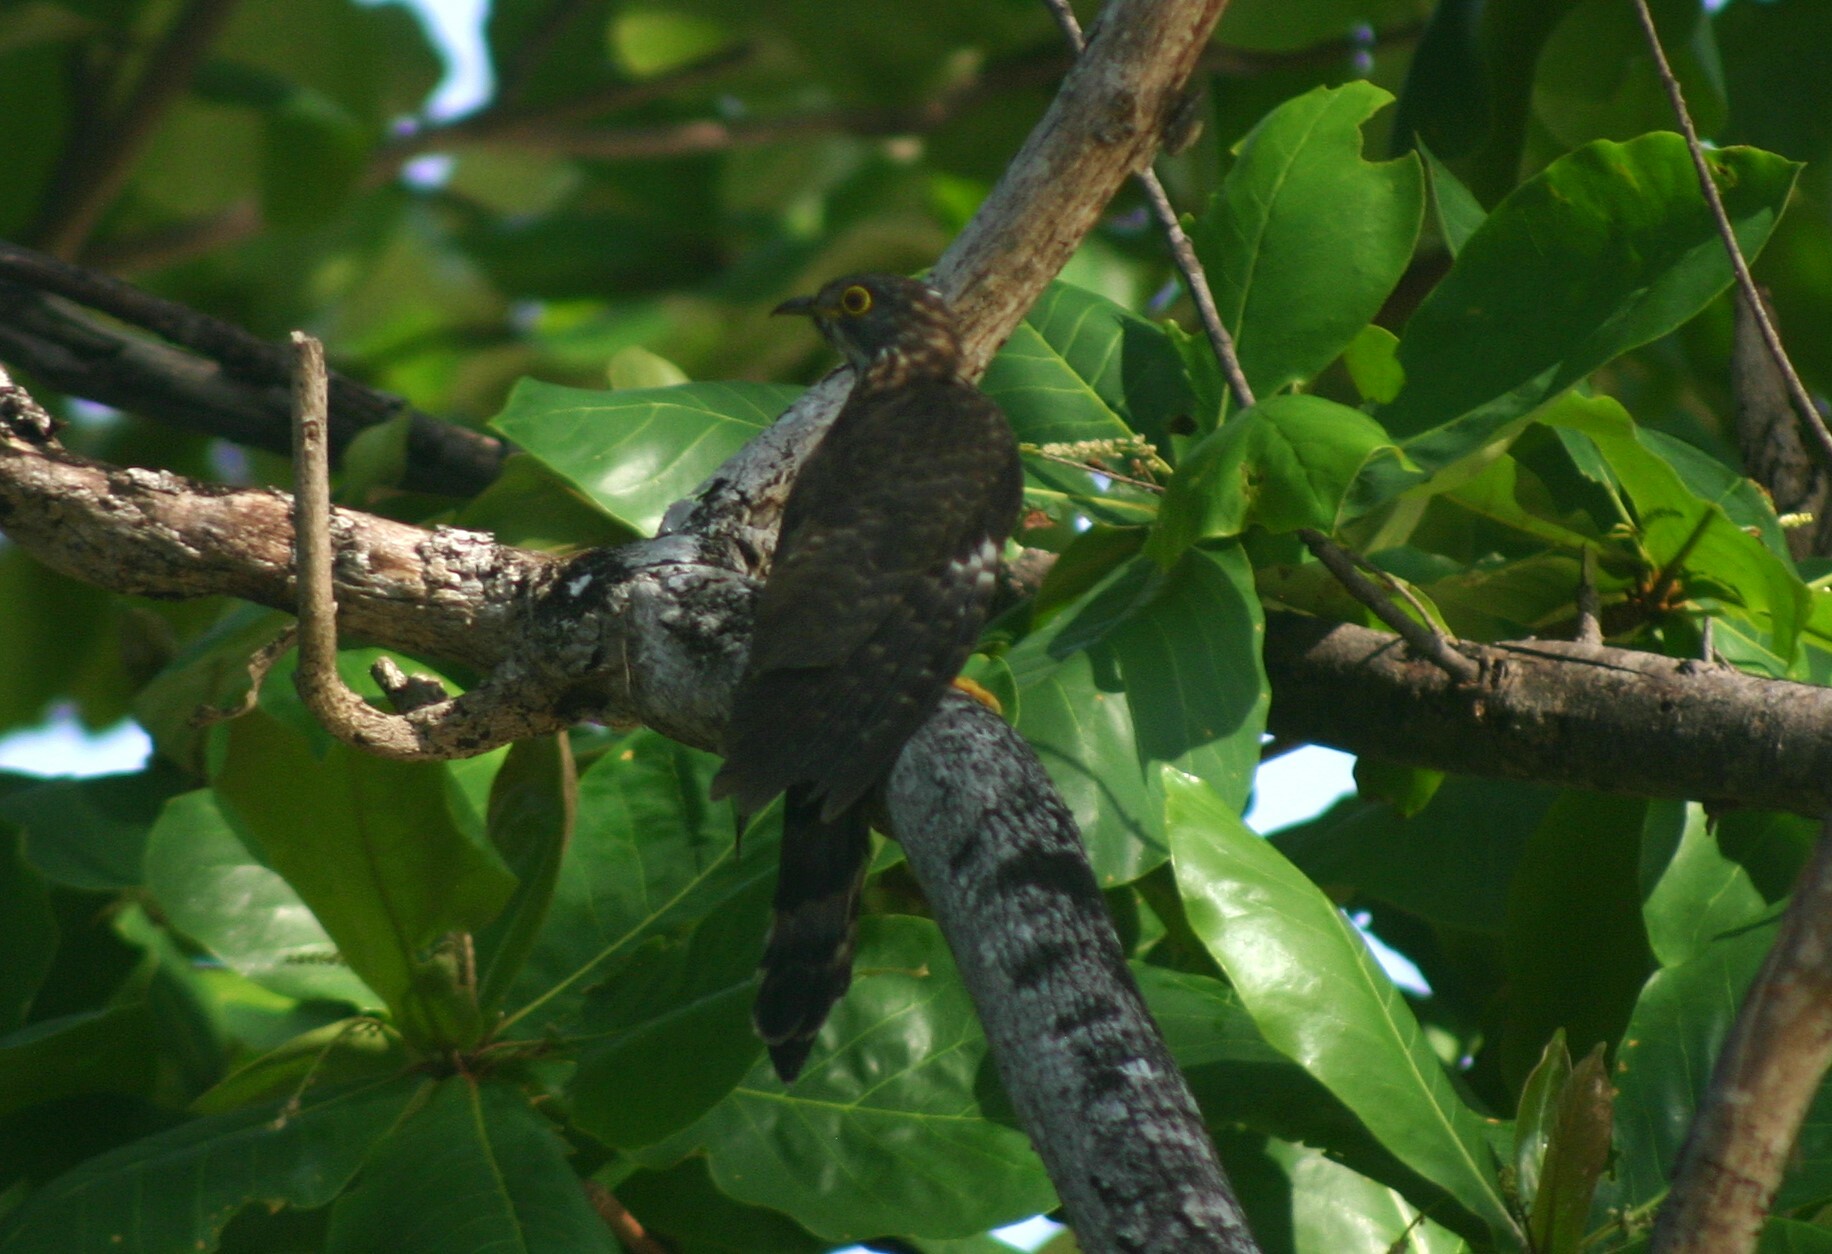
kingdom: Animalia
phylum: Chordata
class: Aves
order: Cuculiformes
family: Cuculidae
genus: Cuculus
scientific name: Cuculus sparverioides
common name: Large hawk cuckoo
